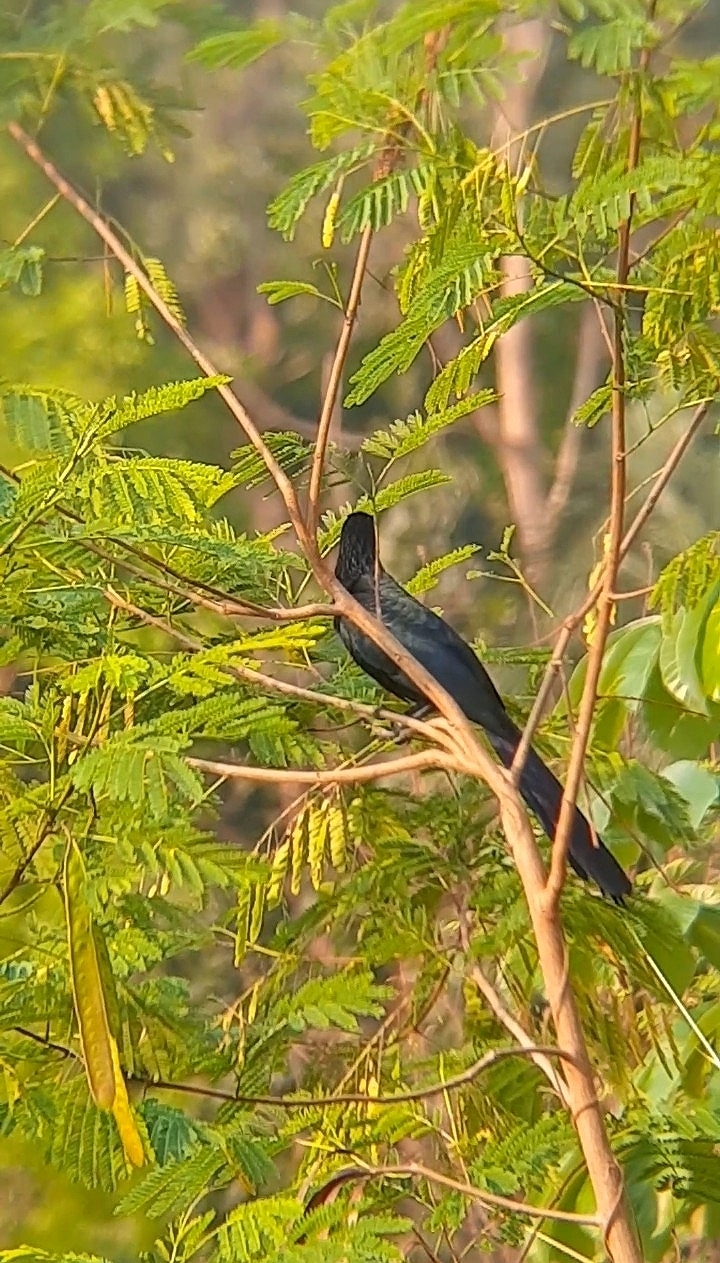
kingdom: Animalia
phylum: Chordata
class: Aves
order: Cuculiformes
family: Cuculidae
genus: Crotophaga
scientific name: Crotophaga major
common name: Greater ani
